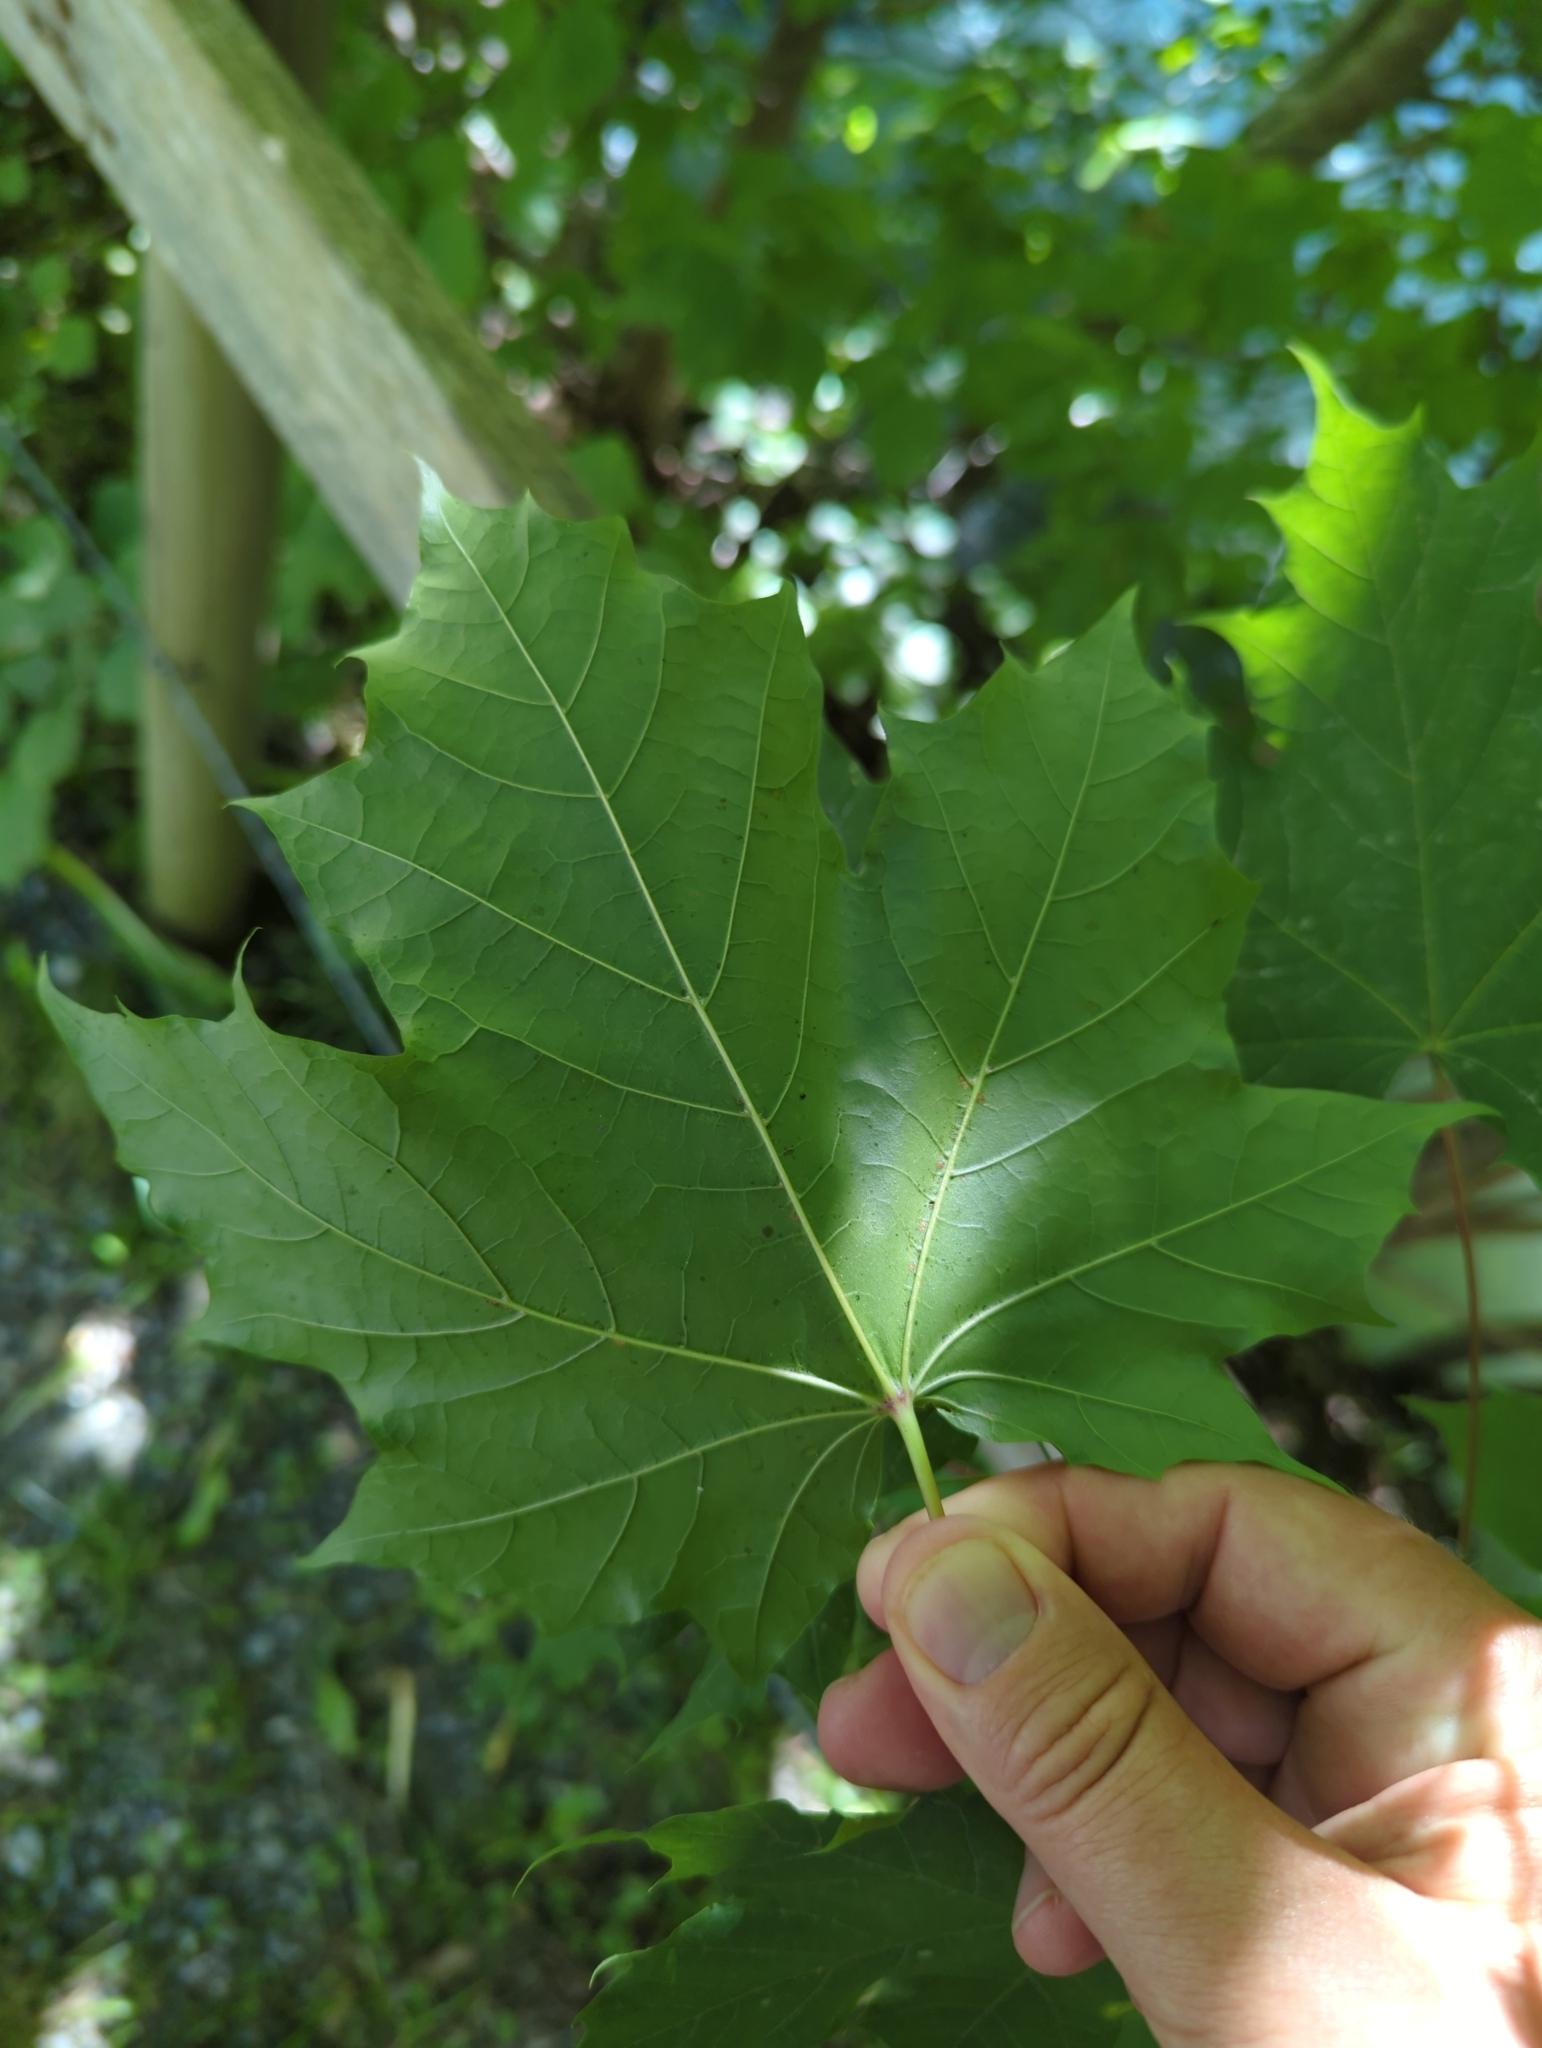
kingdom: Plantae
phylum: Tracheophyta
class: Magnoliopsida
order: Sapindales
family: Sapindaceae
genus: Acer
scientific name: Acer platanoides
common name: Norway maple
